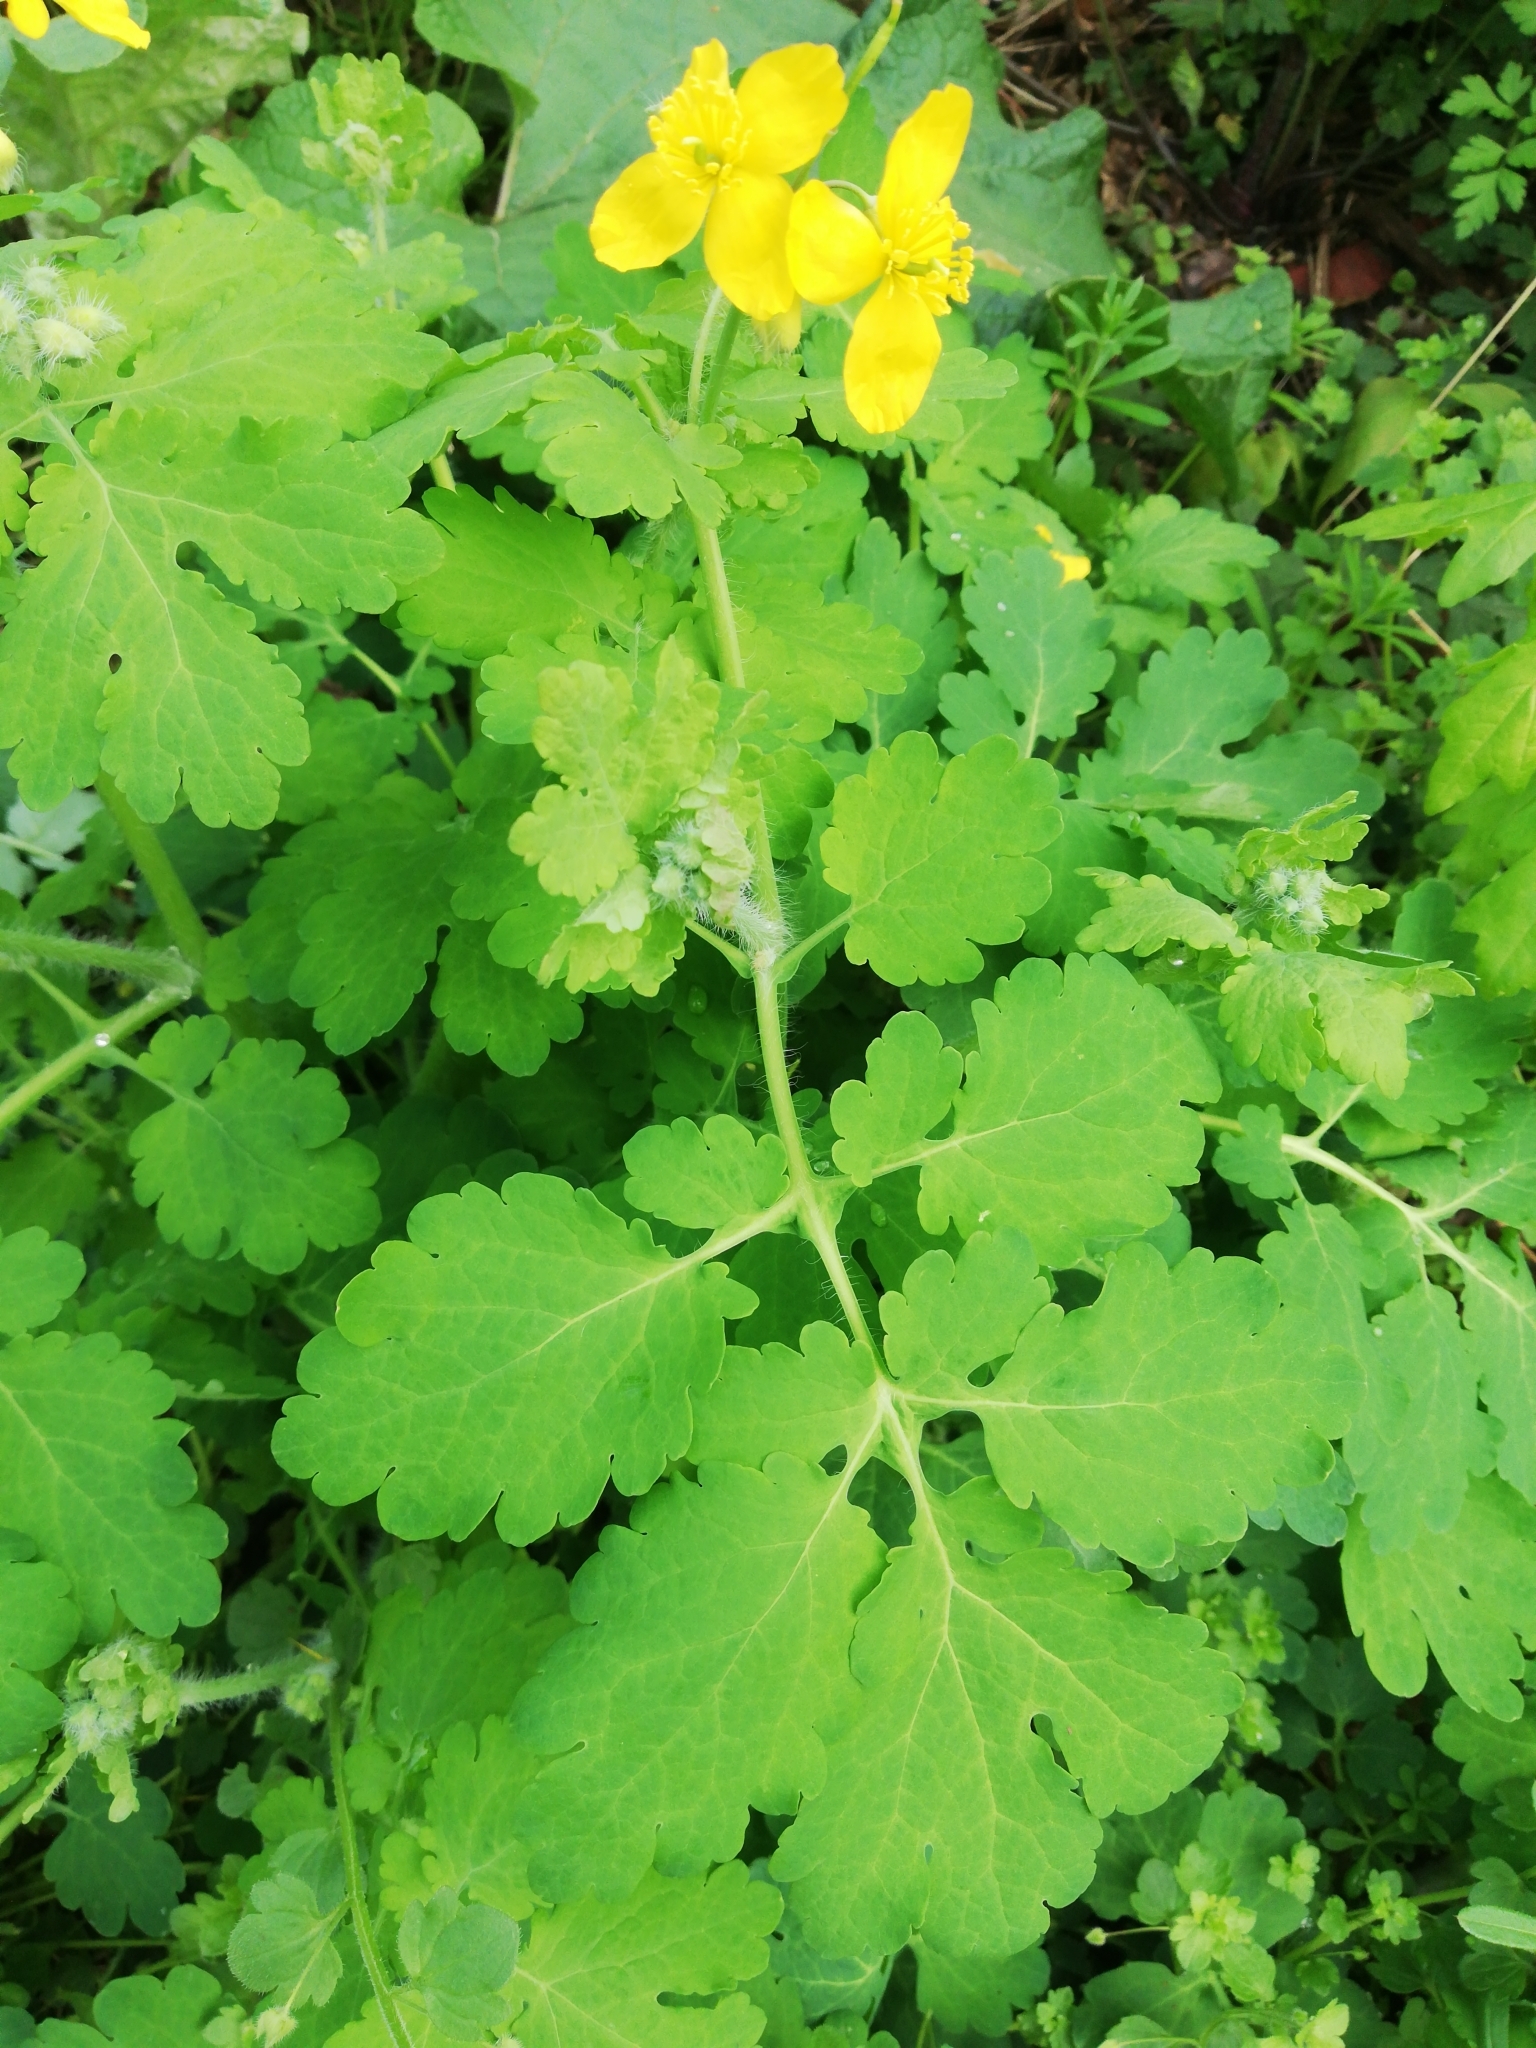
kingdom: Plantae
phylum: Tracheophyta
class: Magnoliopsida
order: Ranunculales
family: Papaveraceae
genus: Chelidonium
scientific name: Chelidonium majus
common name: Greater celandine
